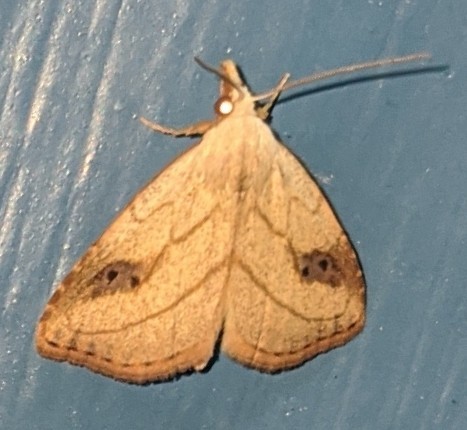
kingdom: Animalia
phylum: Arthropoda
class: Insecta
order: Lepidoptera
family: Erebidae
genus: Rivula
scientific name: Rivula propinqualis
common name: Spotted grass moth
